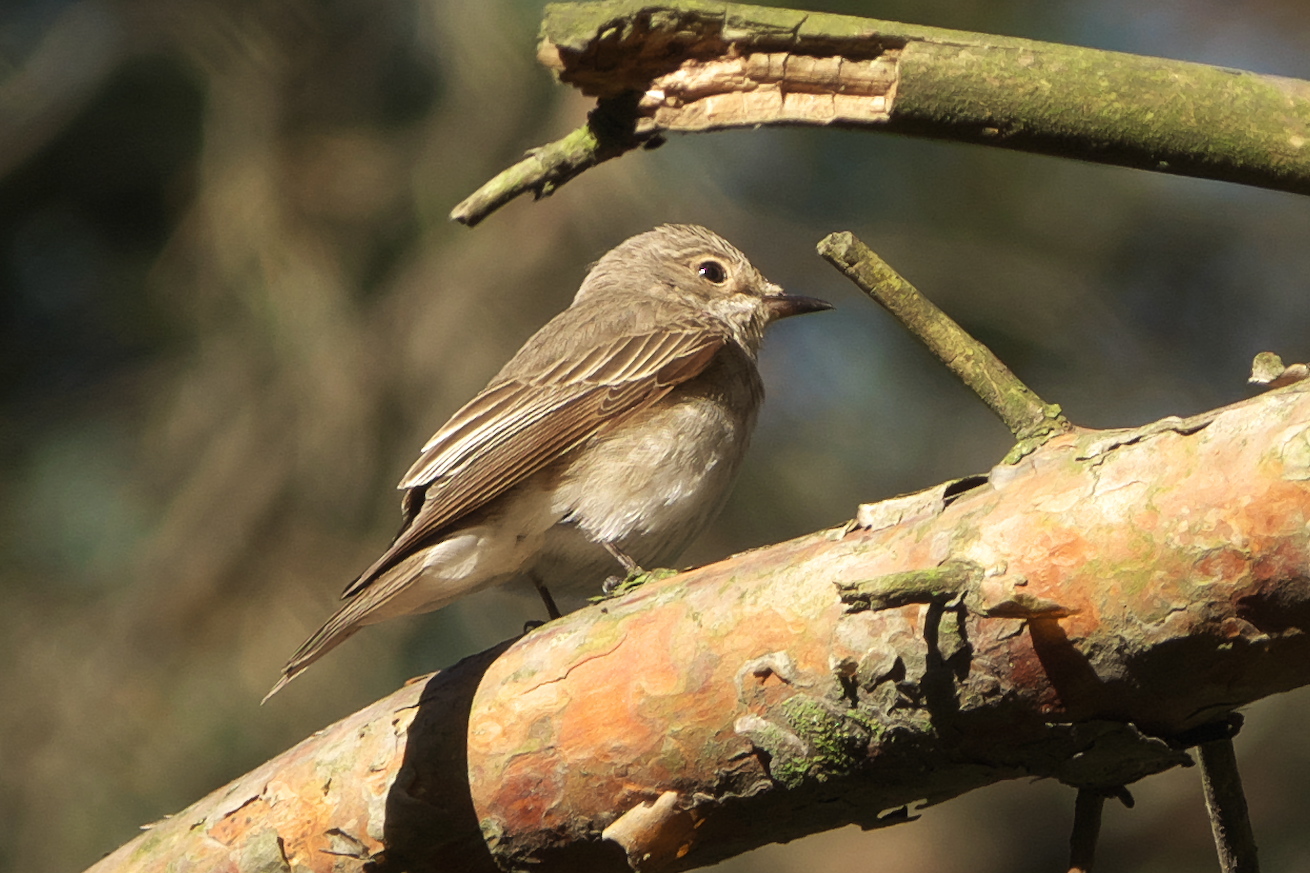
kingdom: Animalia
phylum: Chordata
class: Aves
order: Passeriformes
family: Muscicapidae
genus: Muscicapa
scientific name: Muscicapa striata
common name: Spotted flycatcher
